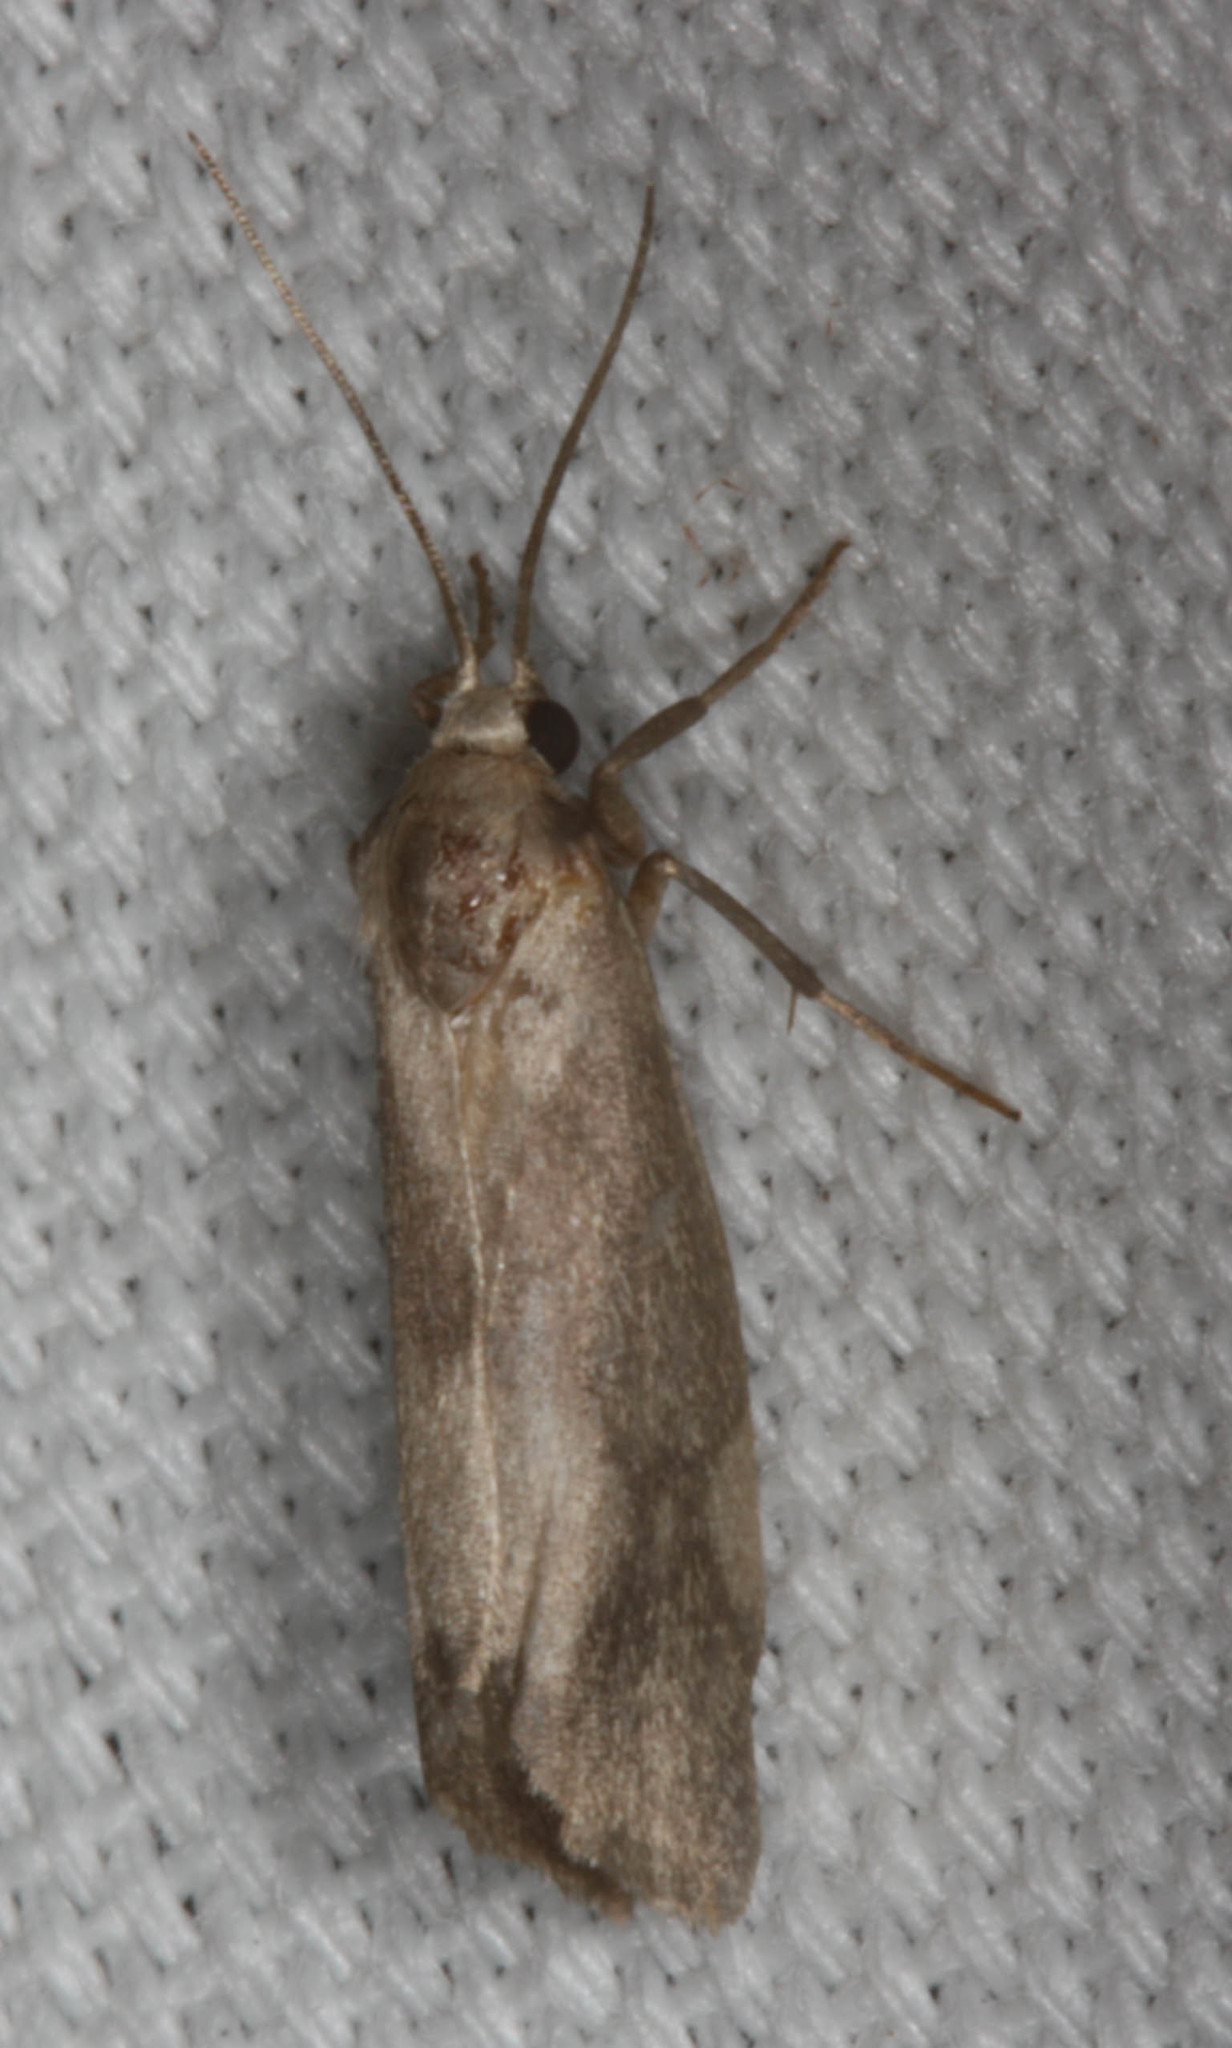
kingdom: Animalia
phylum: Arthropoda
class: Insecta
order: Lepidoptera
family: Erebidae
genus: Cisthene
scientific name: Cisthene faustinula
